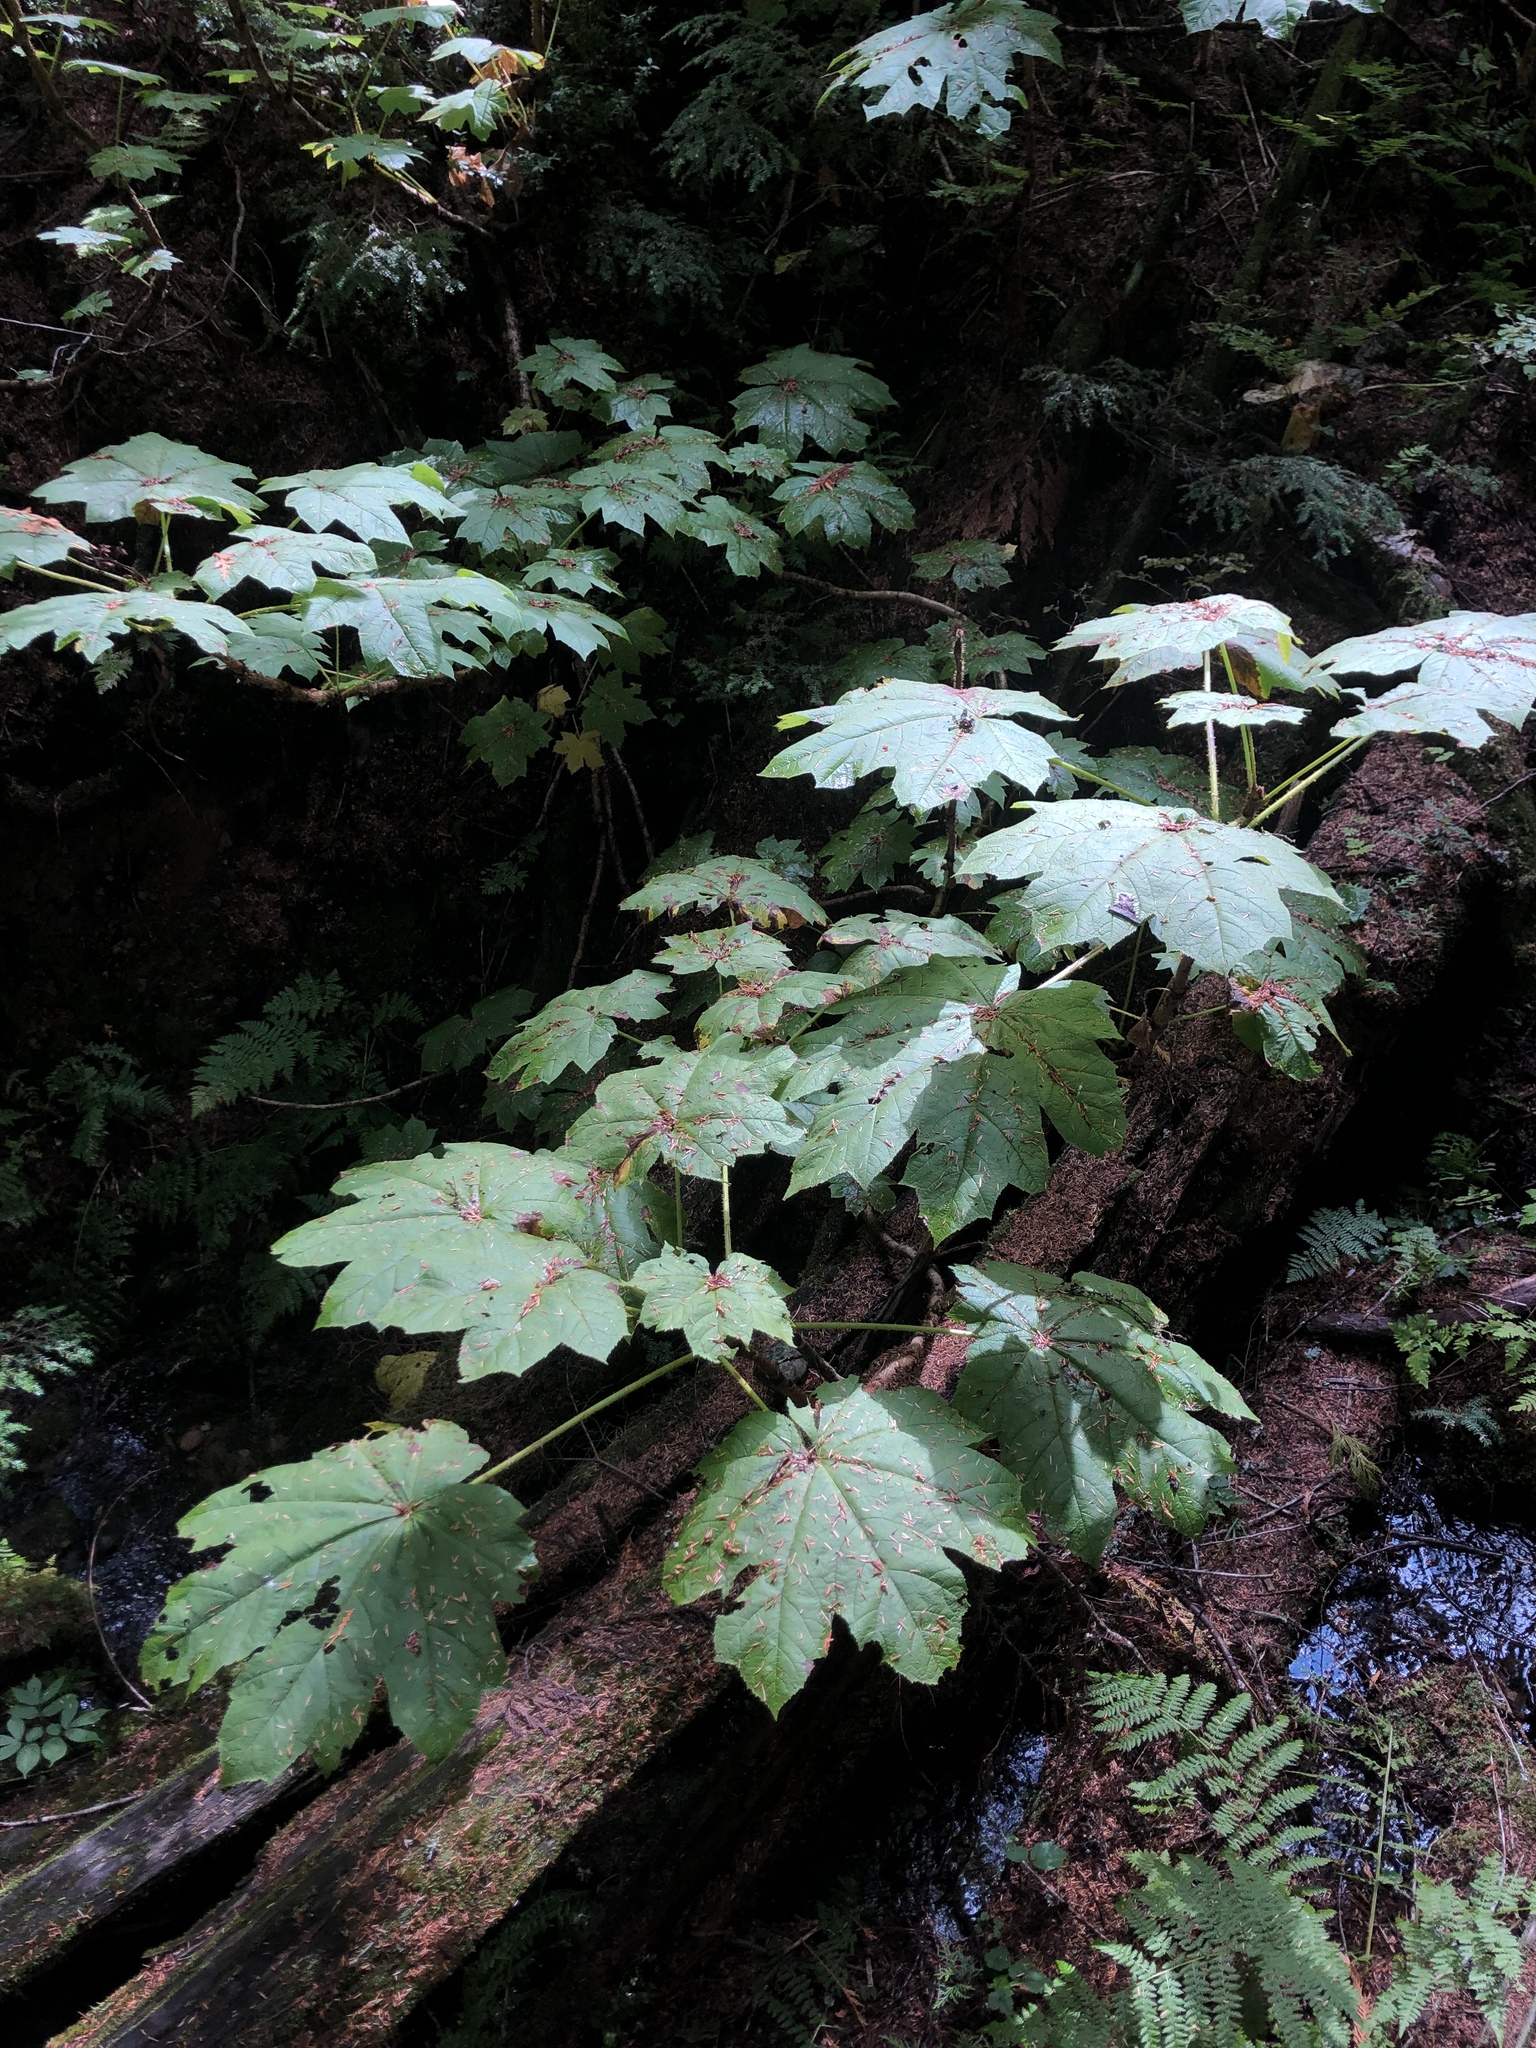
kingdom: Plantae
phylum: Tracheophyta
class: Magnoliopsida
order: Apiales
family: Araliaceae
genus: Oplopanax
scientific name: Oplopanax horridus
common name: Devil's walking-stick
